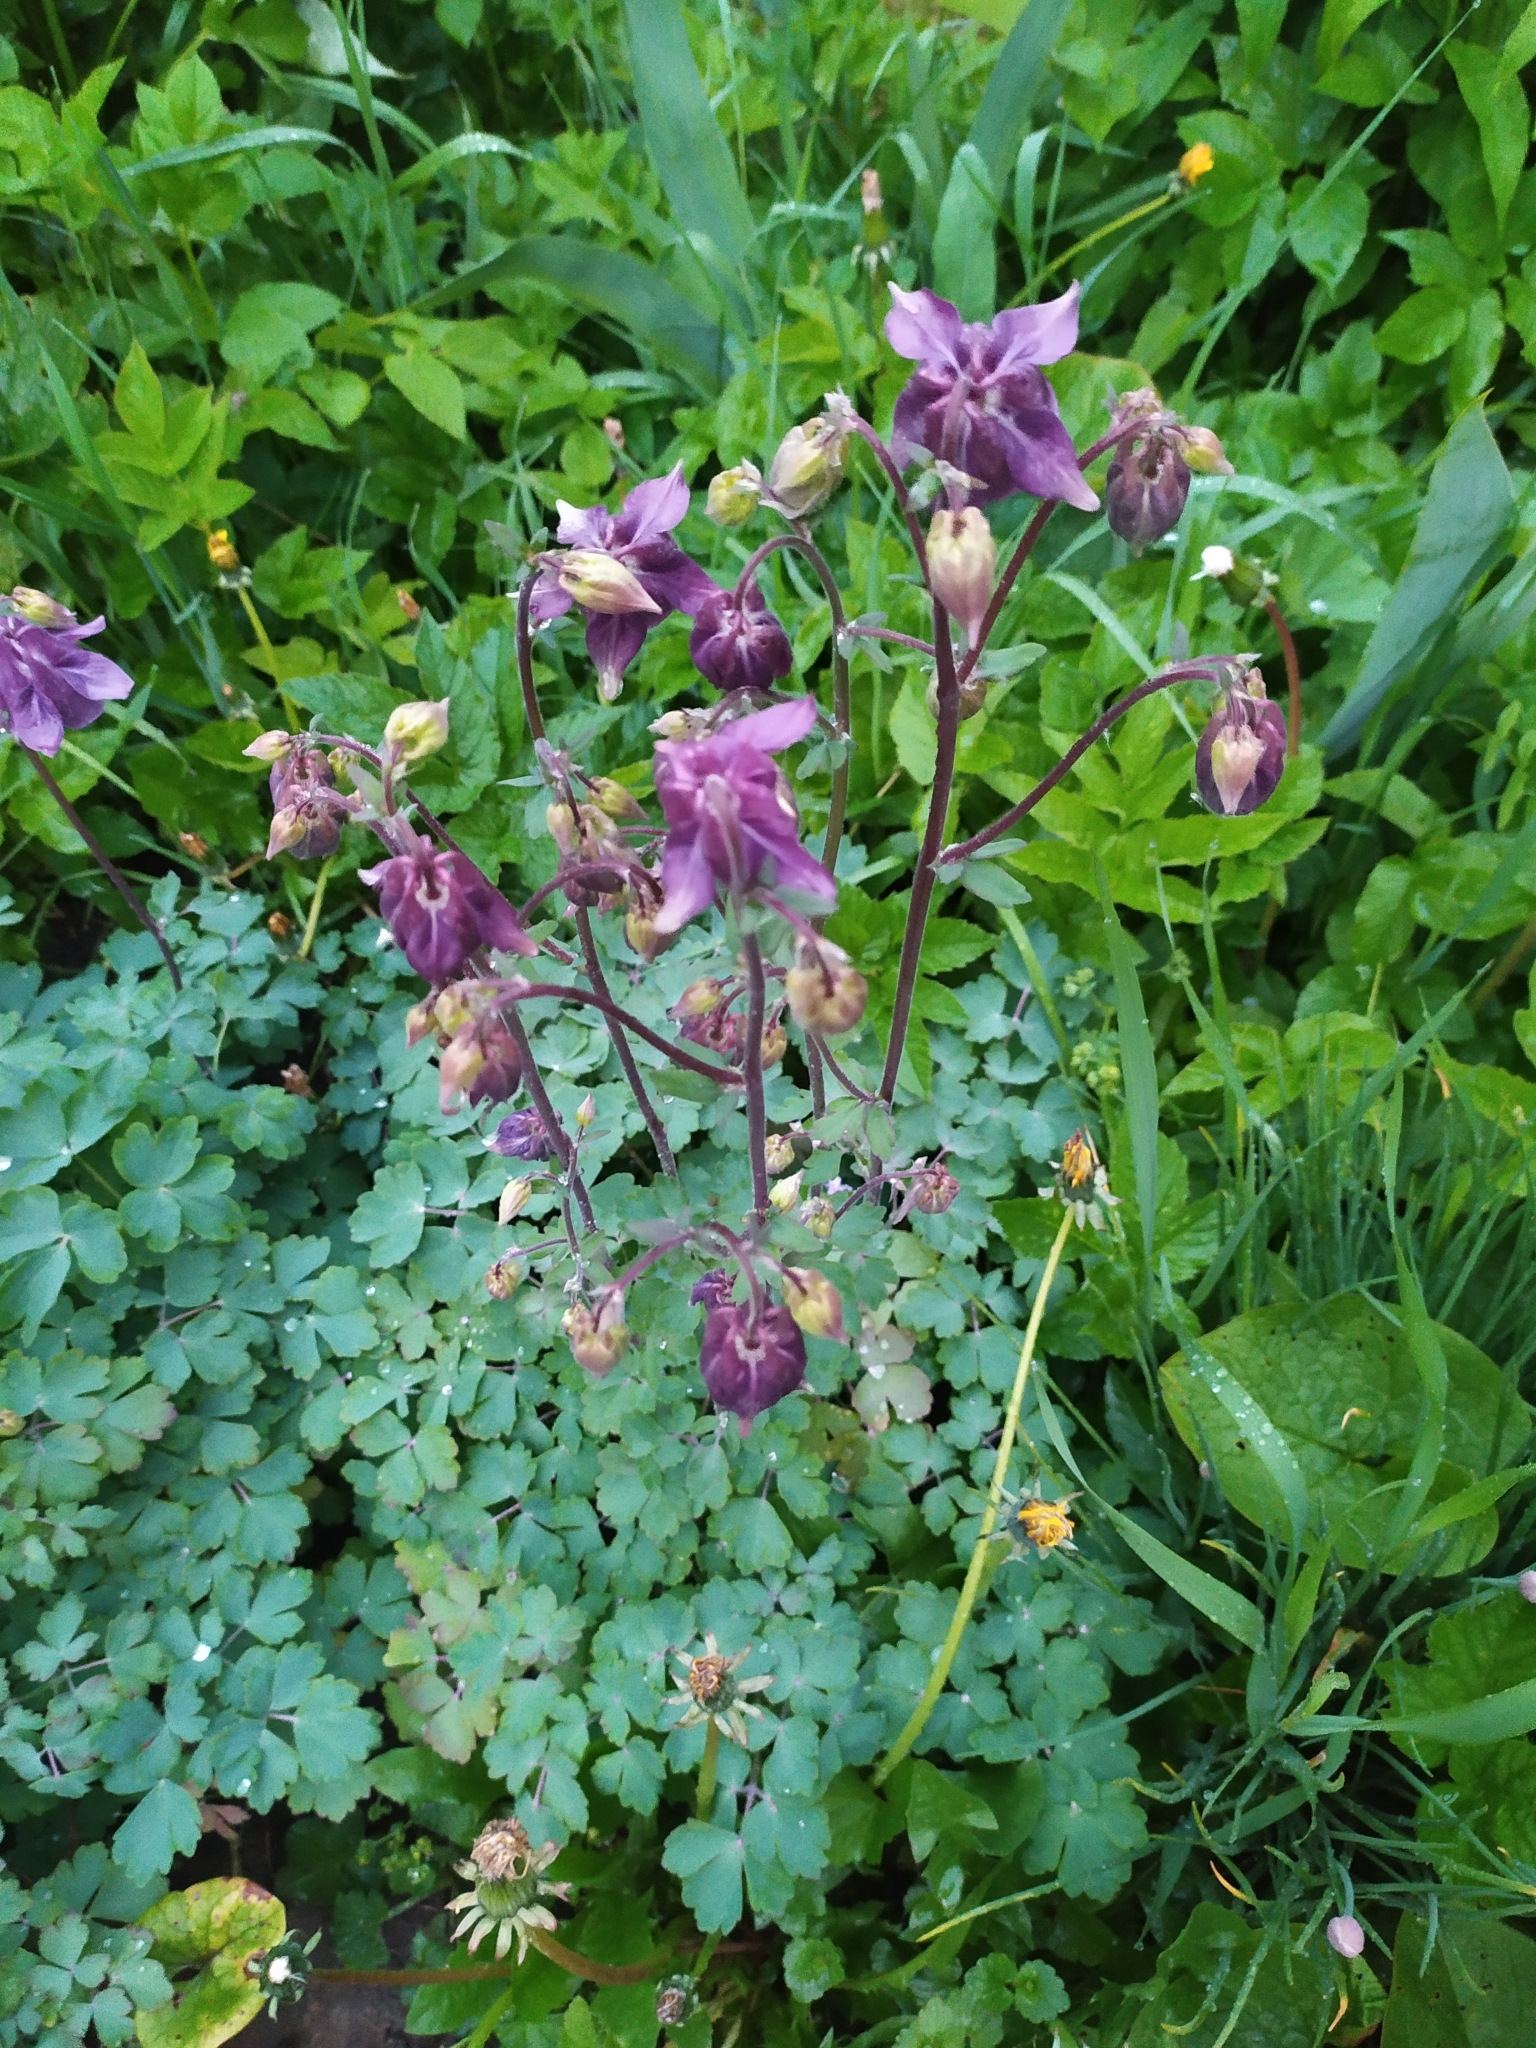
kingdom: Plantae
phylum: Tracheophyta
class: Magnoliopsida
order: Ranunculales
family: Ranunculaceae
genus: Aquilegia
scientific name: Aquilegia vulgaris
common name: Columbine
